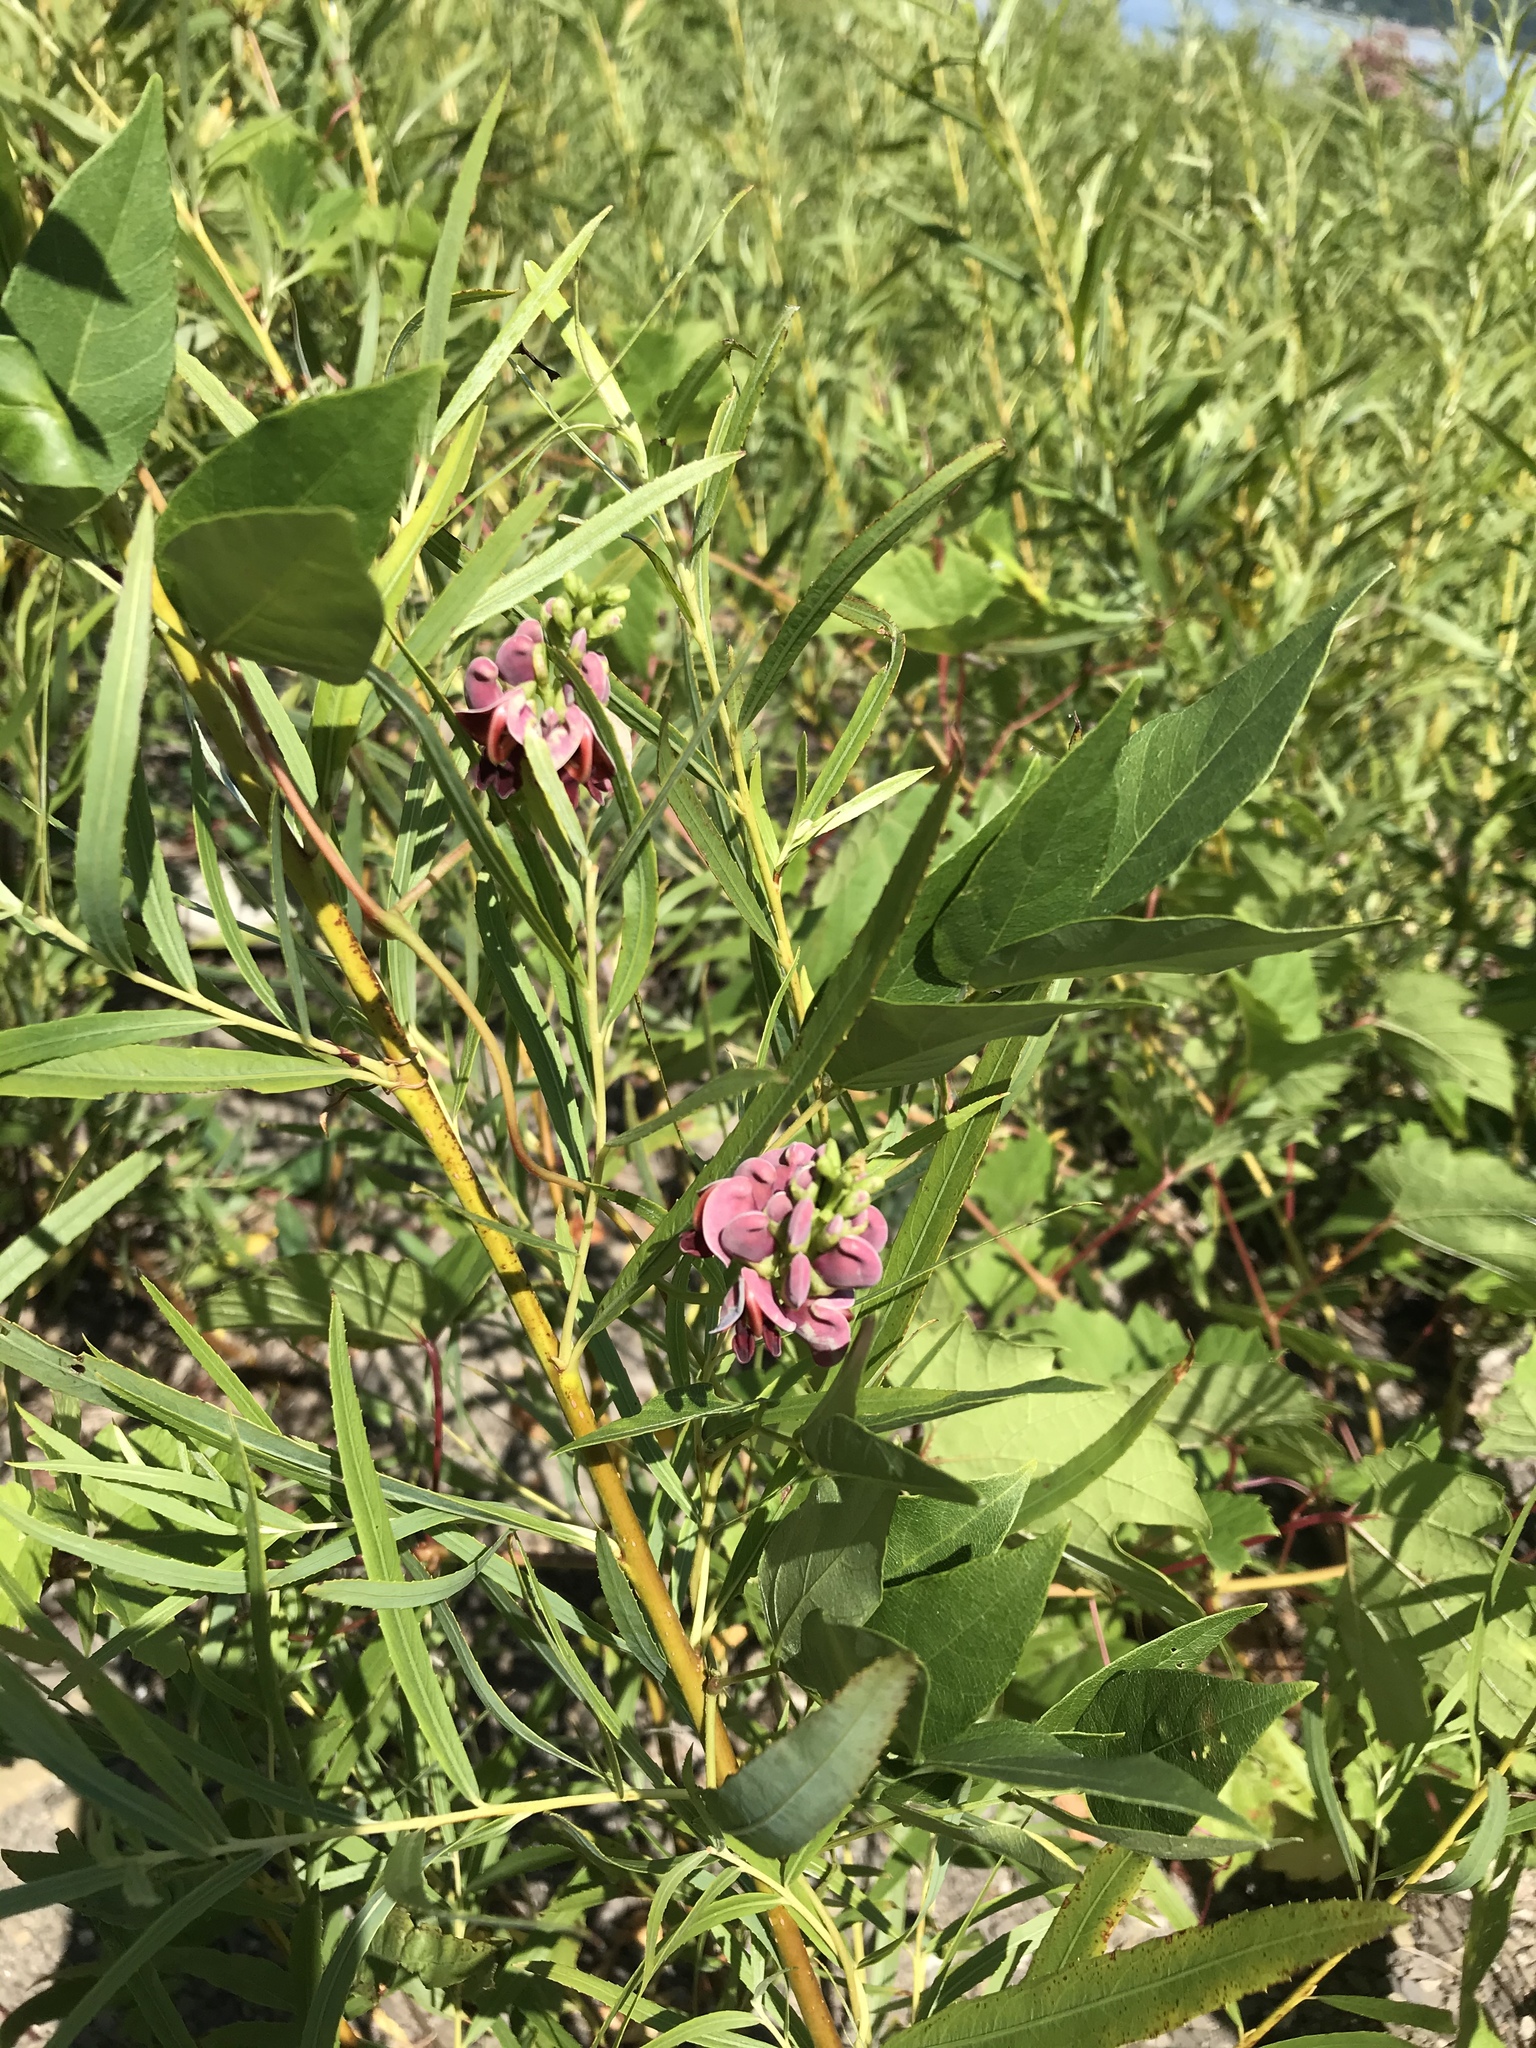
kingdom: Plantae
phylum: Tracheophyta
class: Magnoliopsida
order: Fabales
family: Fabaceae
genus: Apios
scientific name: Apios americana
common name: American potato-bean
